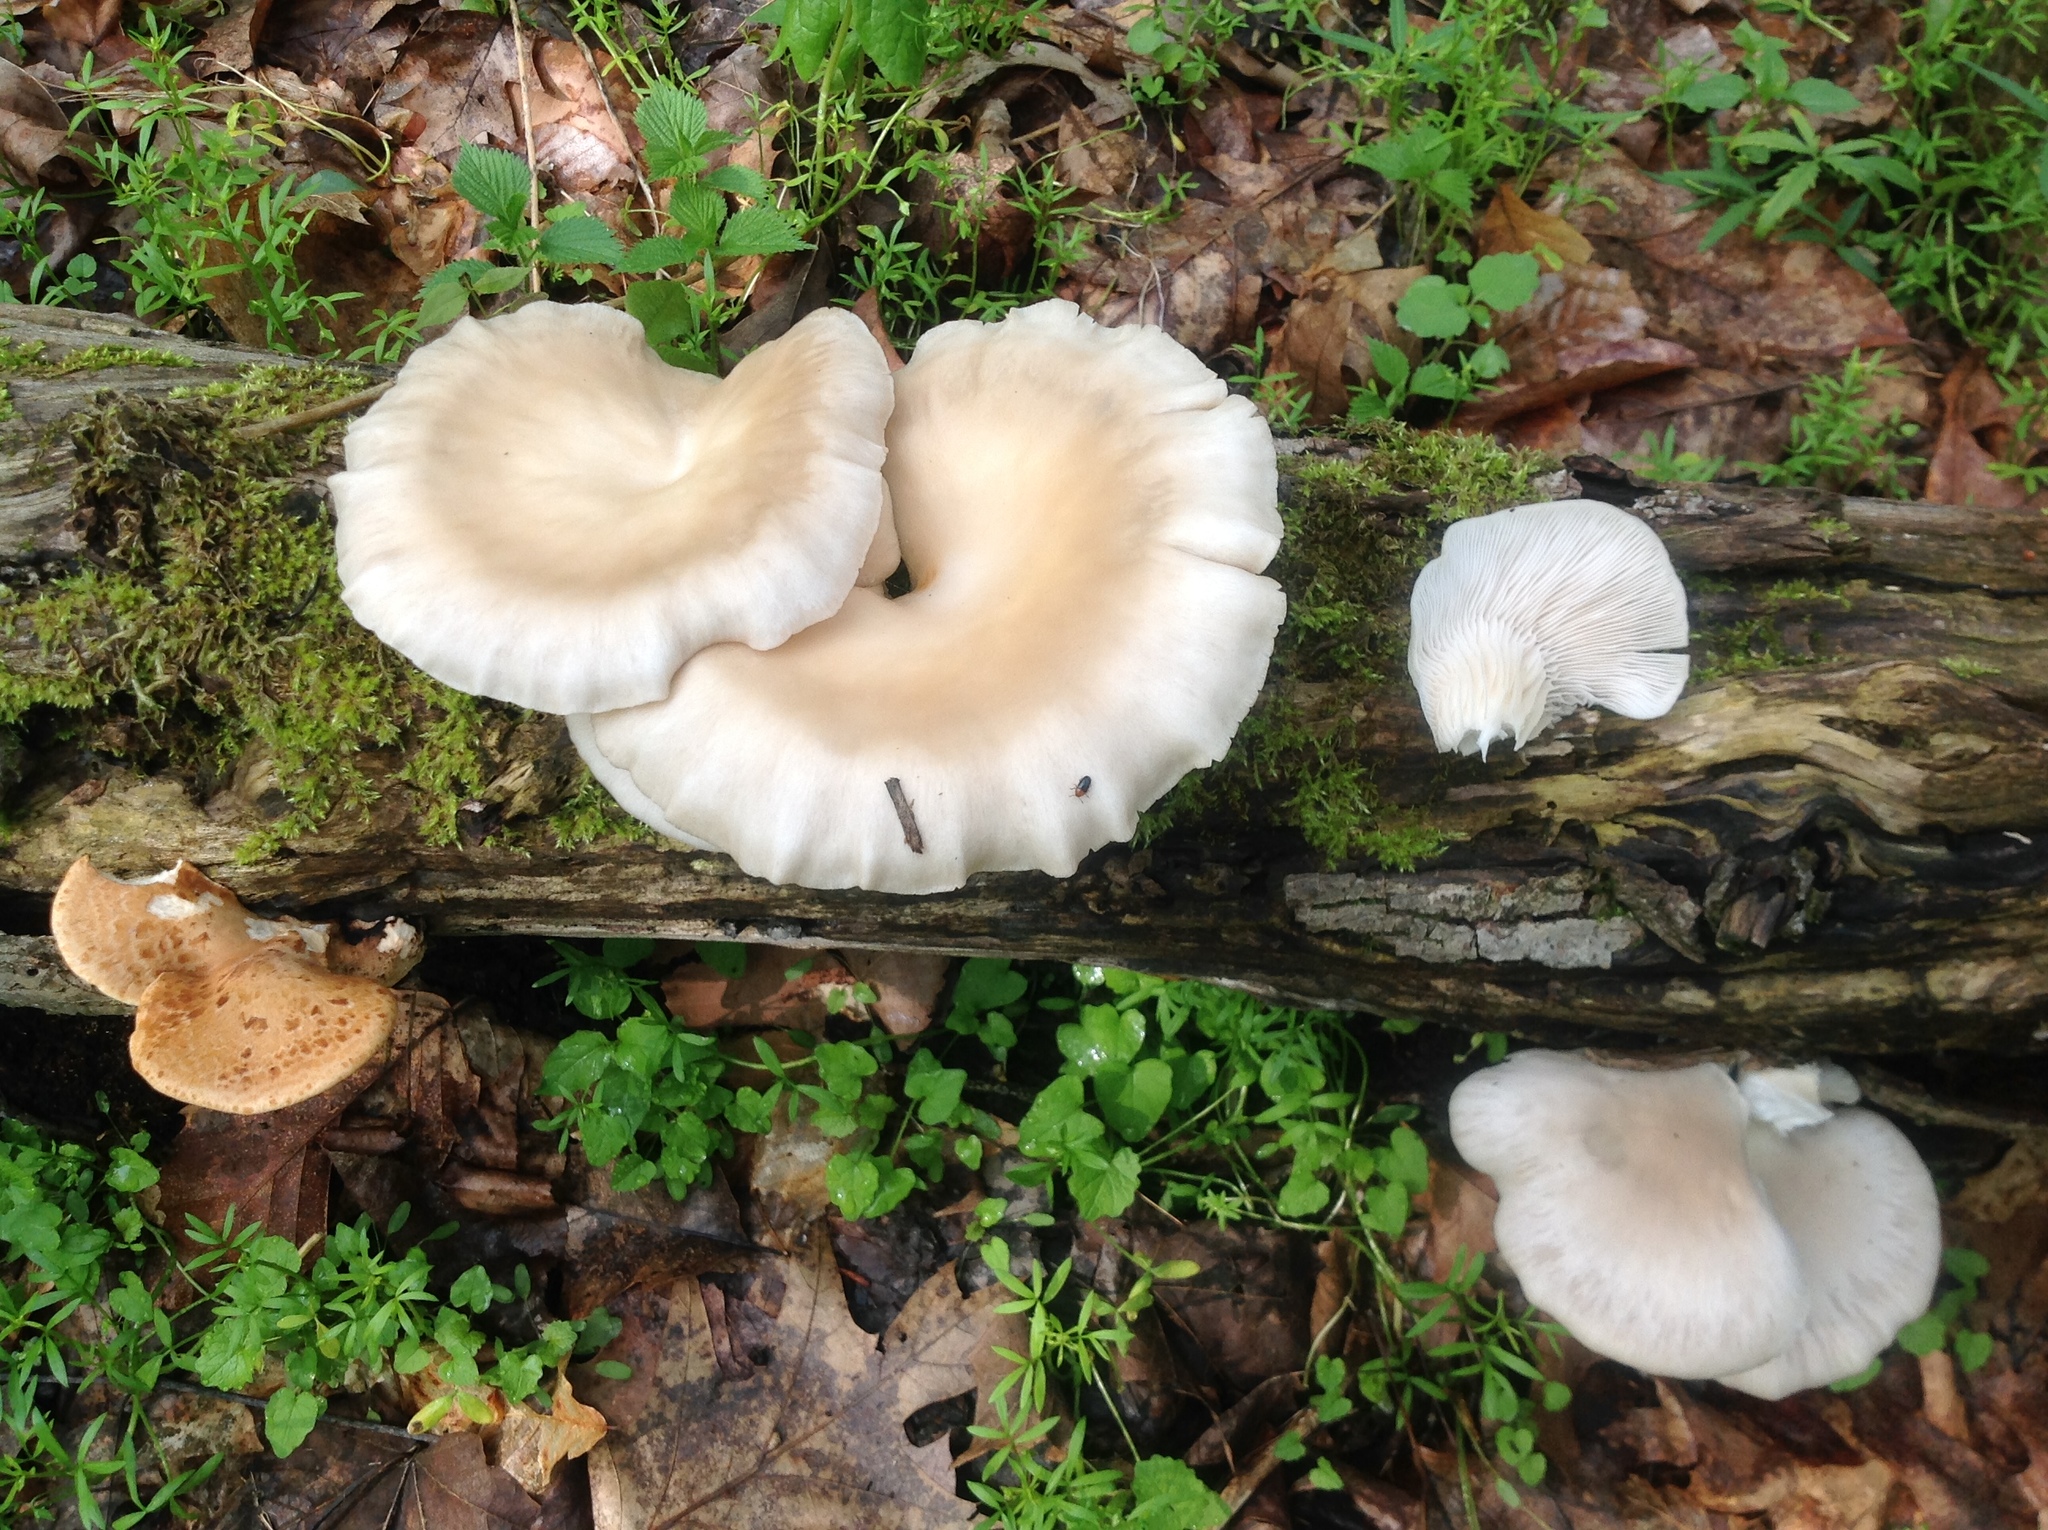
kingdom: Fungi
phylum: Basidiomycota
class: Agaricomycetes
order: Agaricales
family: Pleurotaceae
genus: Pleurotus
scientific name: Pleurotus pulmonarius
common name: Pale oyster
